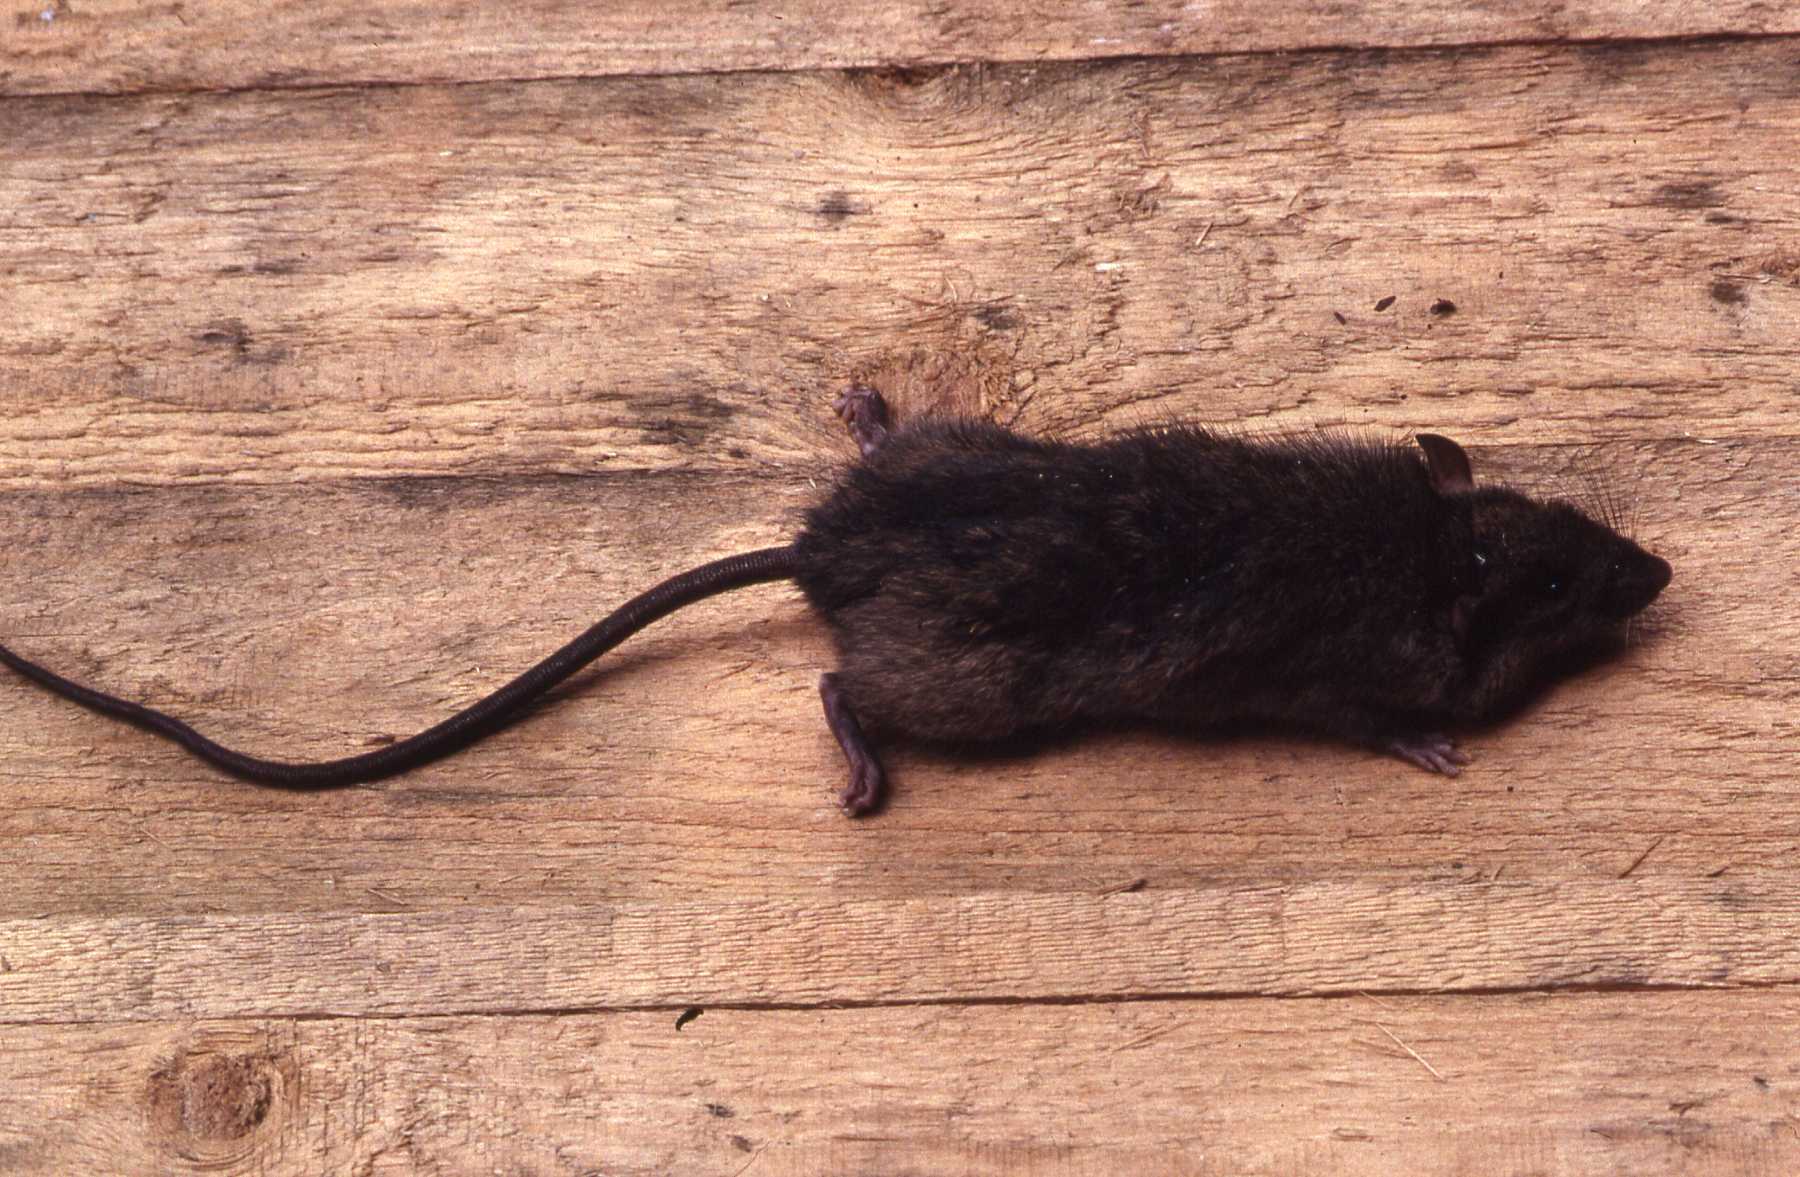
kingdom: Animalia
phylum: Chordata
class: Mammalia
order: Rodentia
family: Muridae
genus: Rattus
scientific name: Rattus rattus
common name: Black rat
